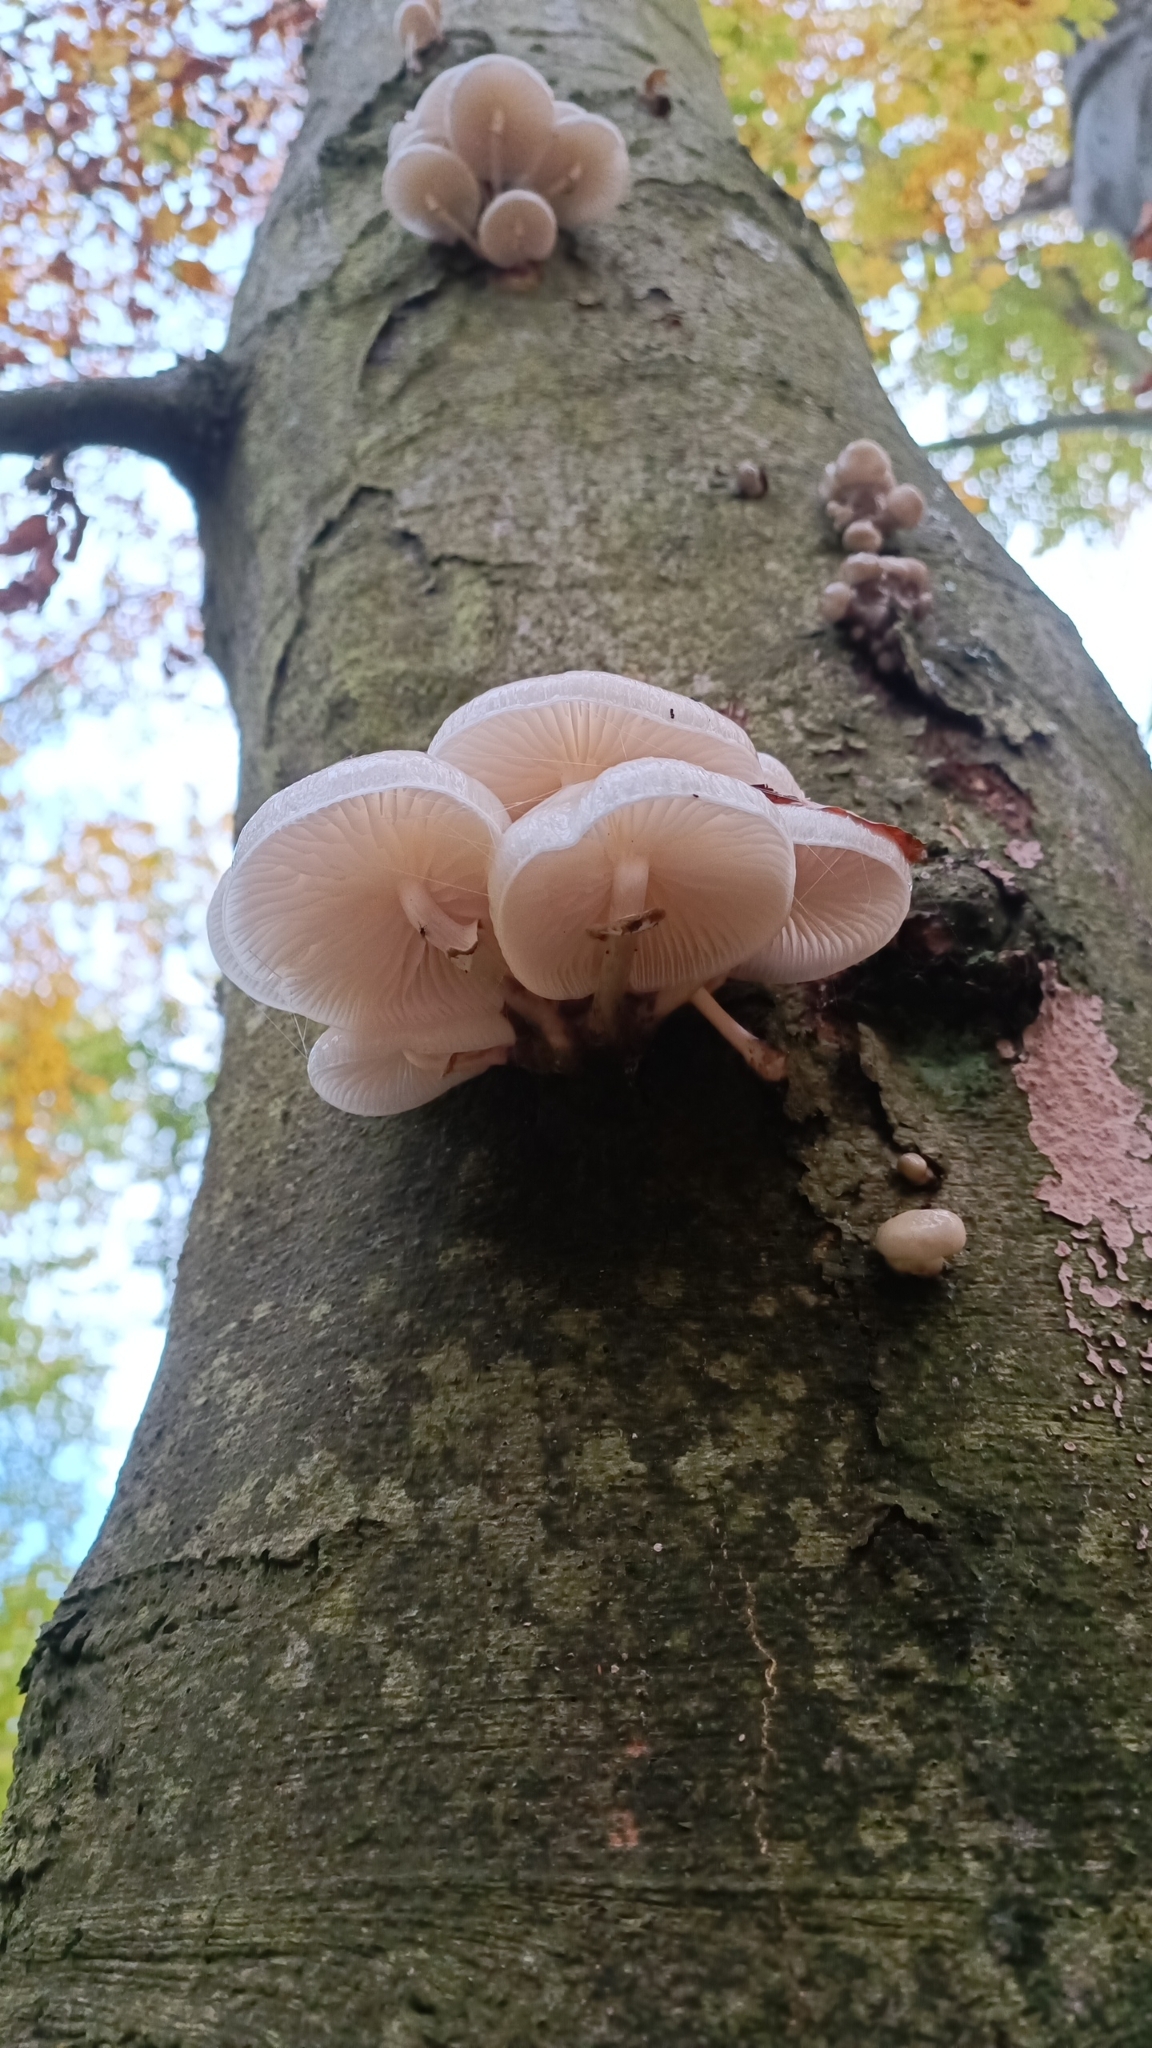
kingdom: Fungi
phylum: Basidiomycota
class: Agaricomycetes
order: Agaricales
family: Physalacriaceae
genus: Mucidula
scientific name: Mucidula mucida
